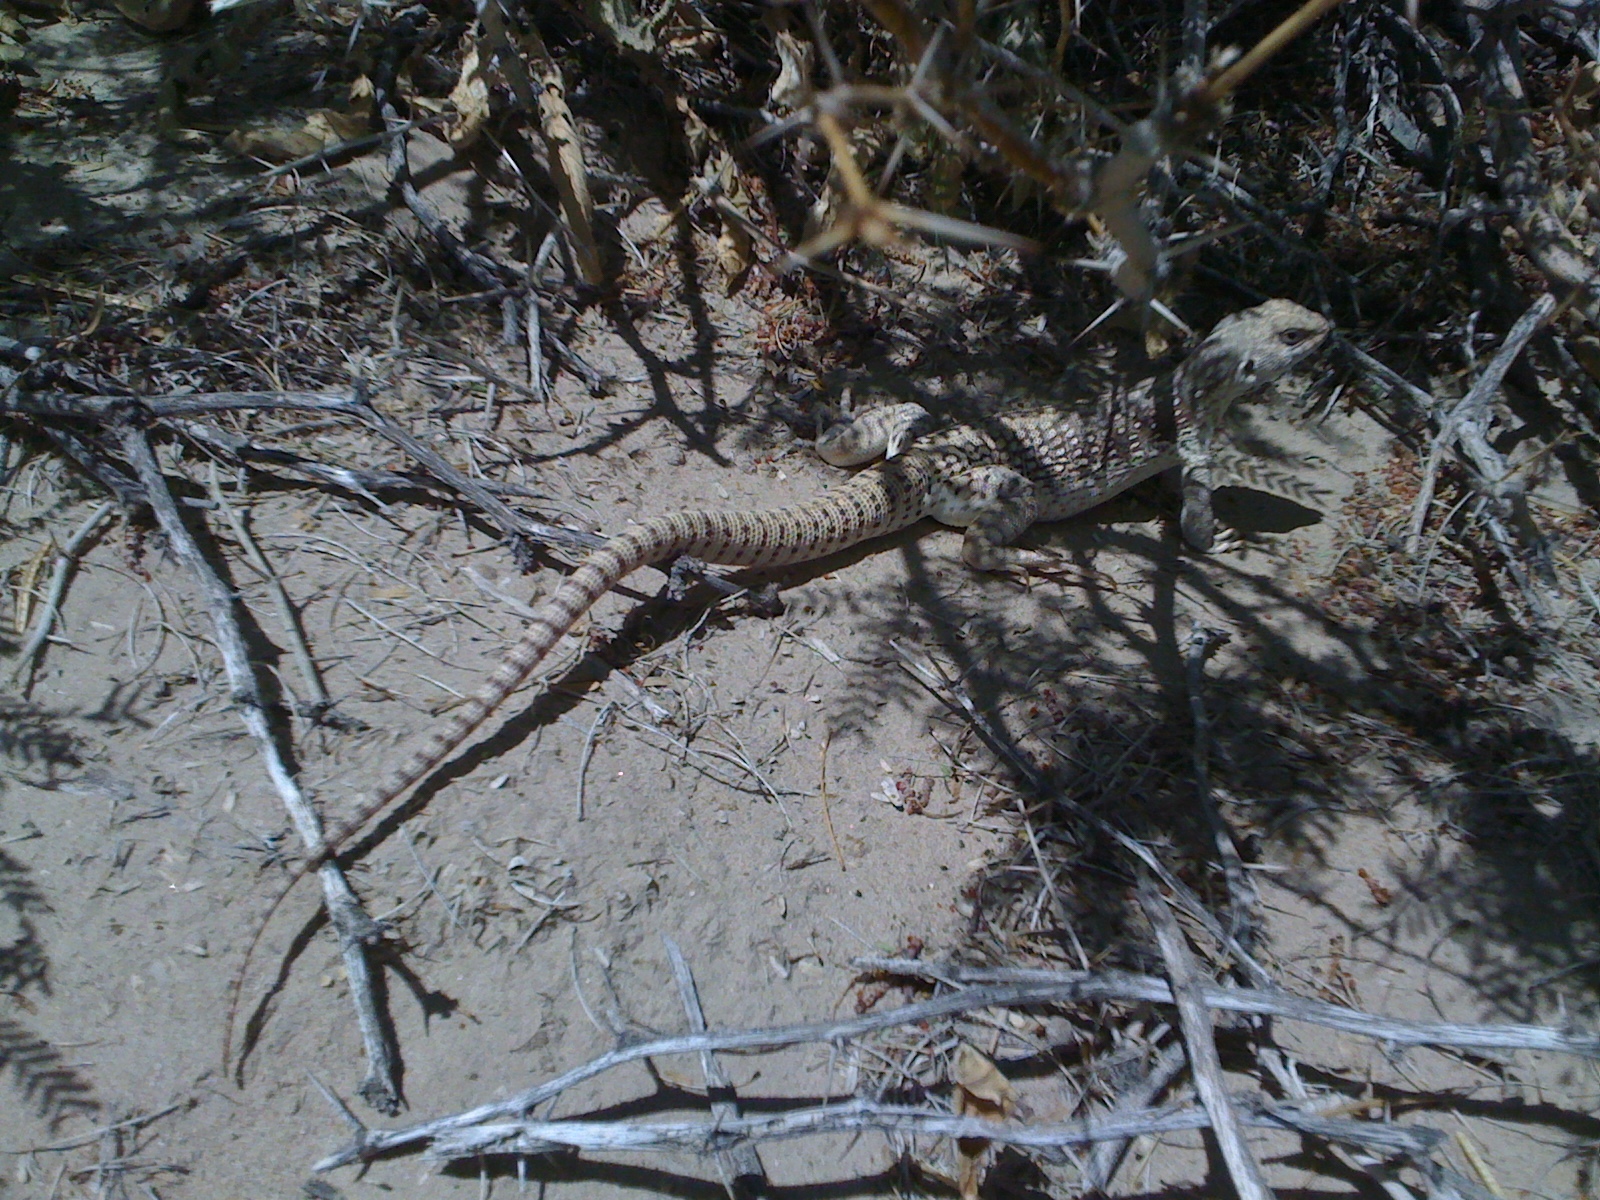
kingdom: Animalia
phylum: Chordata
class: Squamata
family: Iguanidae
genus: Dipsosaurus
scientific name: Dipsosaurus dorsalis
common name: Desert iguana
